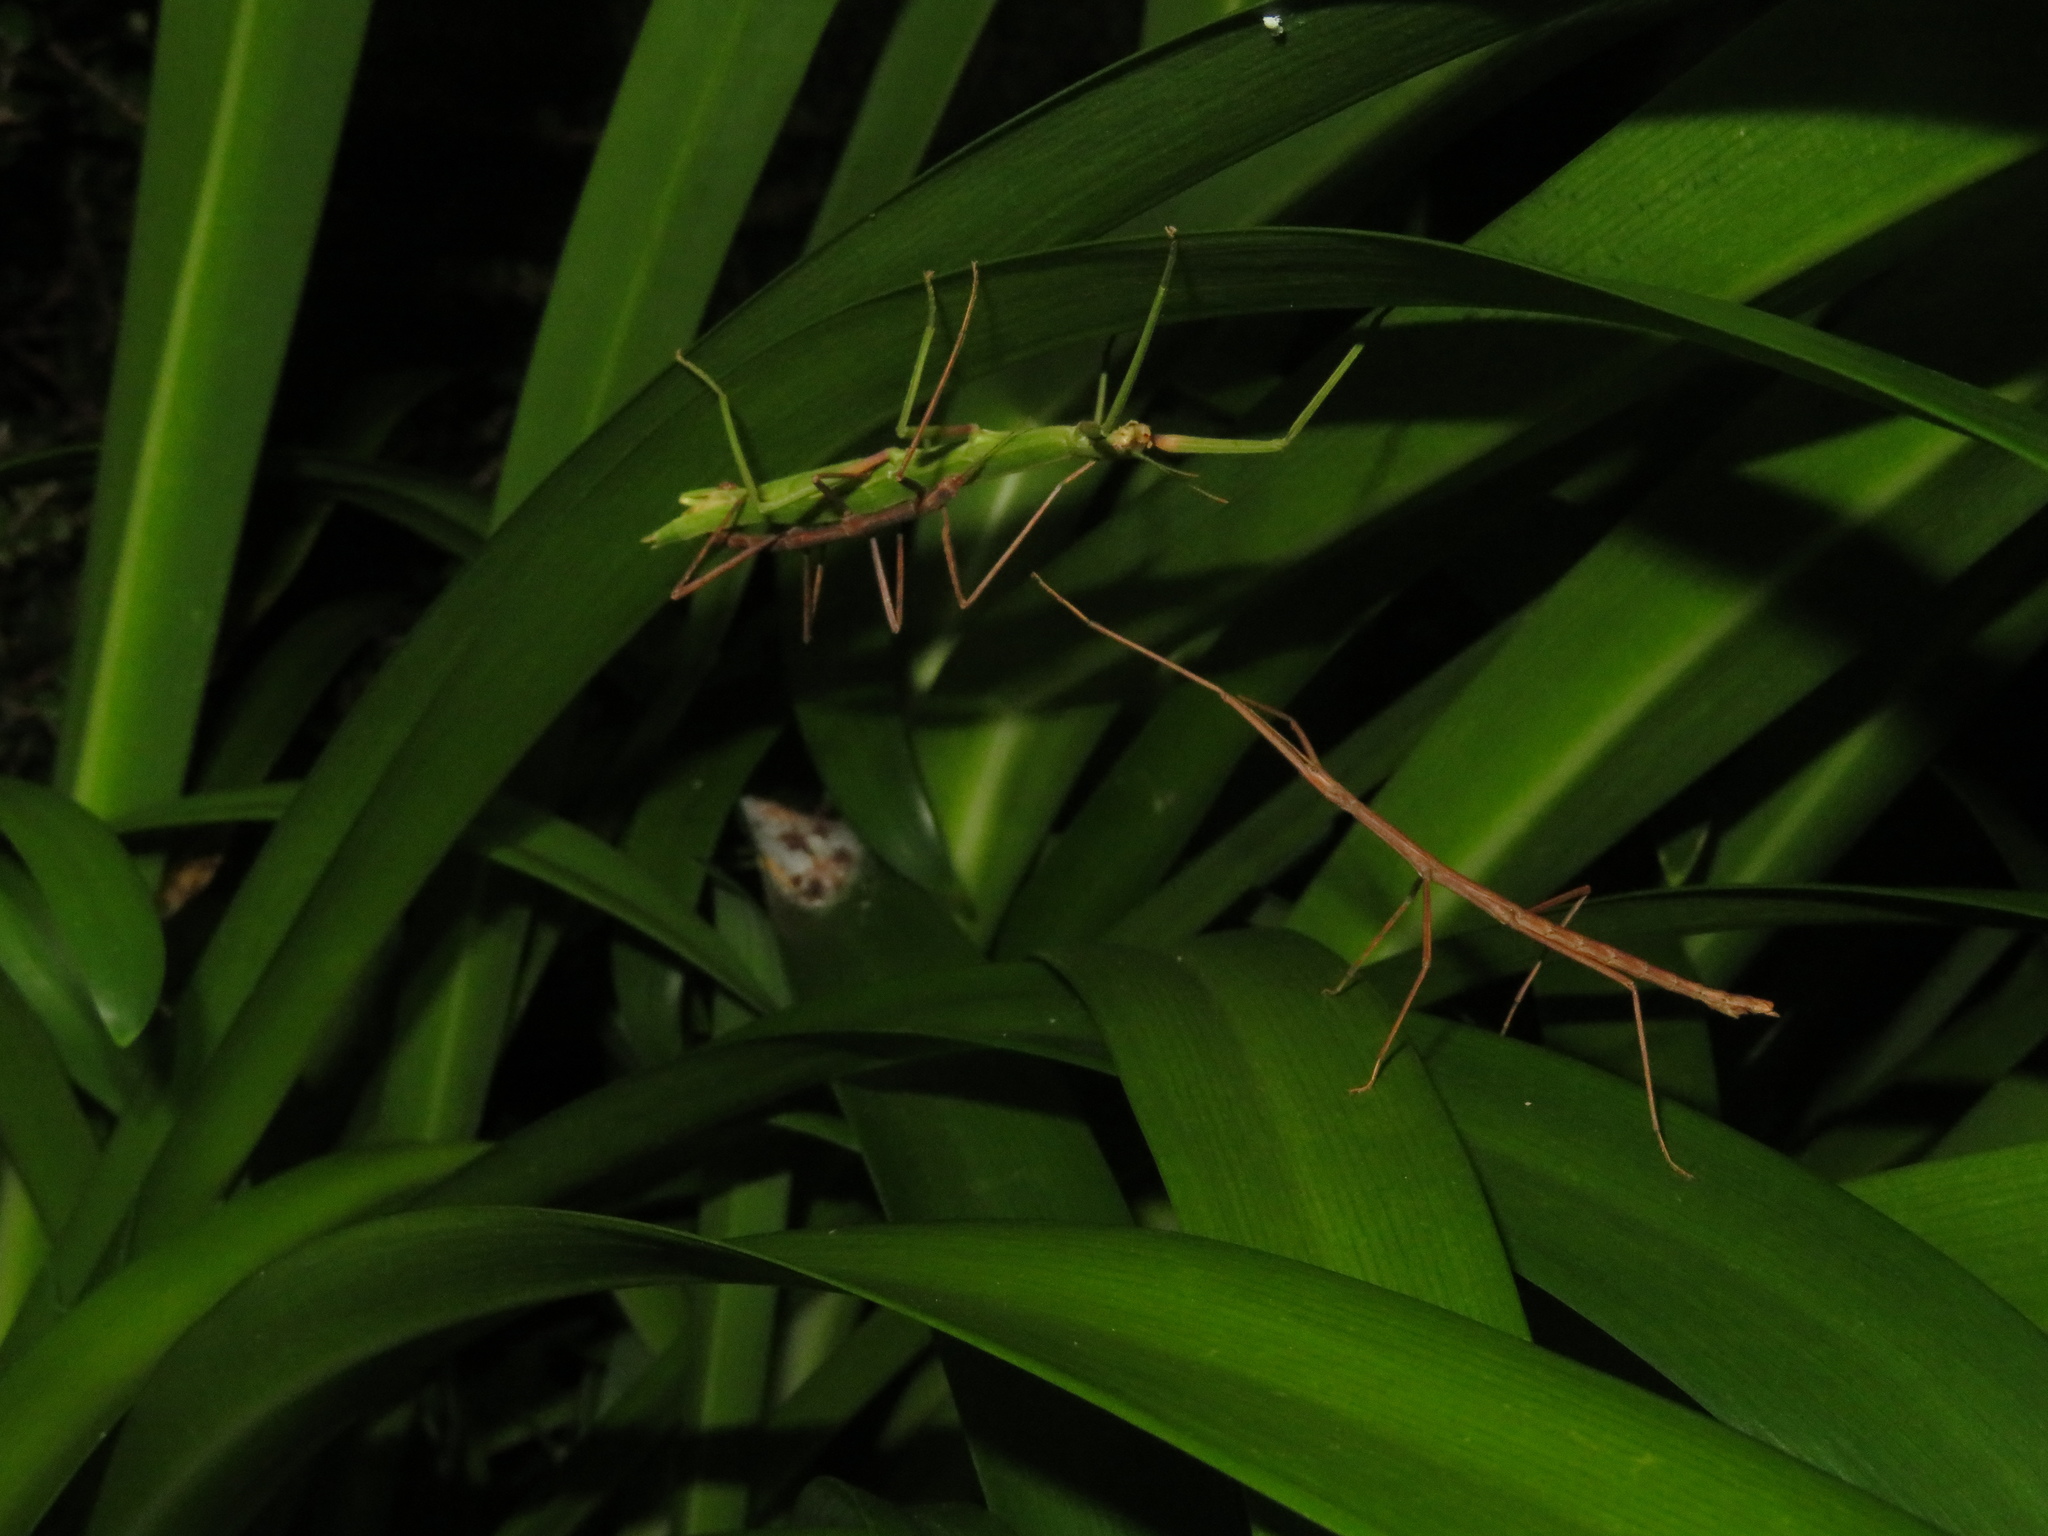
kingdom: Animalia
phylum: Arthropoda
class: Insecta
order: Phasmida
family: Phasmatidae
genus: Tectarchus
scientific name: Tectarchus huttoni
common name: The common ridge-backed stick insect
